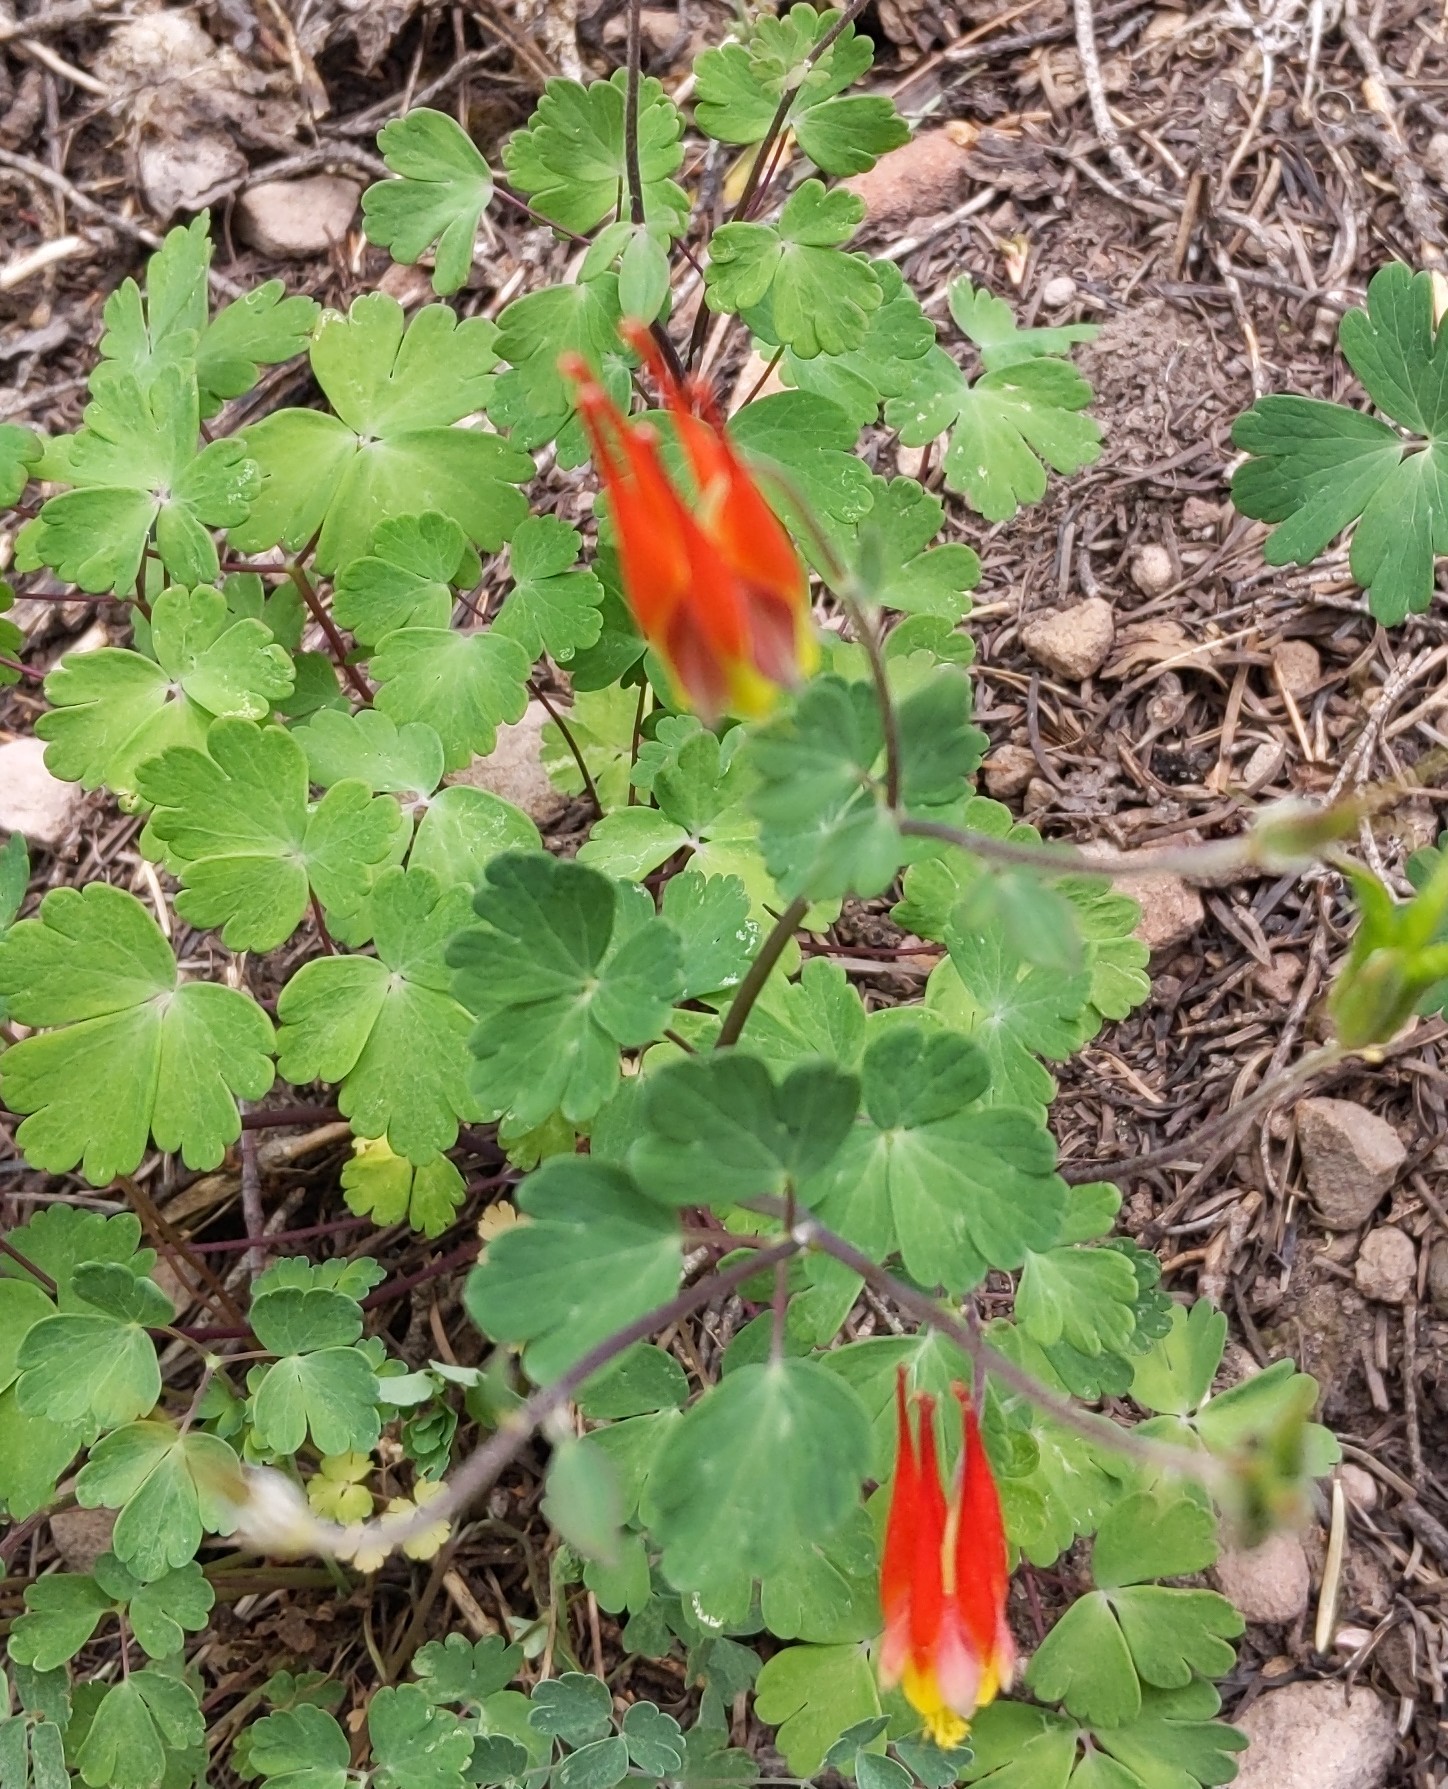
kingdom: Plantae
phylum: Tracheophyta
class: Magnoliopsida
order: Ranunculales
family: Ranunculaceae
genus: Aquilegia
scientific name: Aquilegia elegantula
